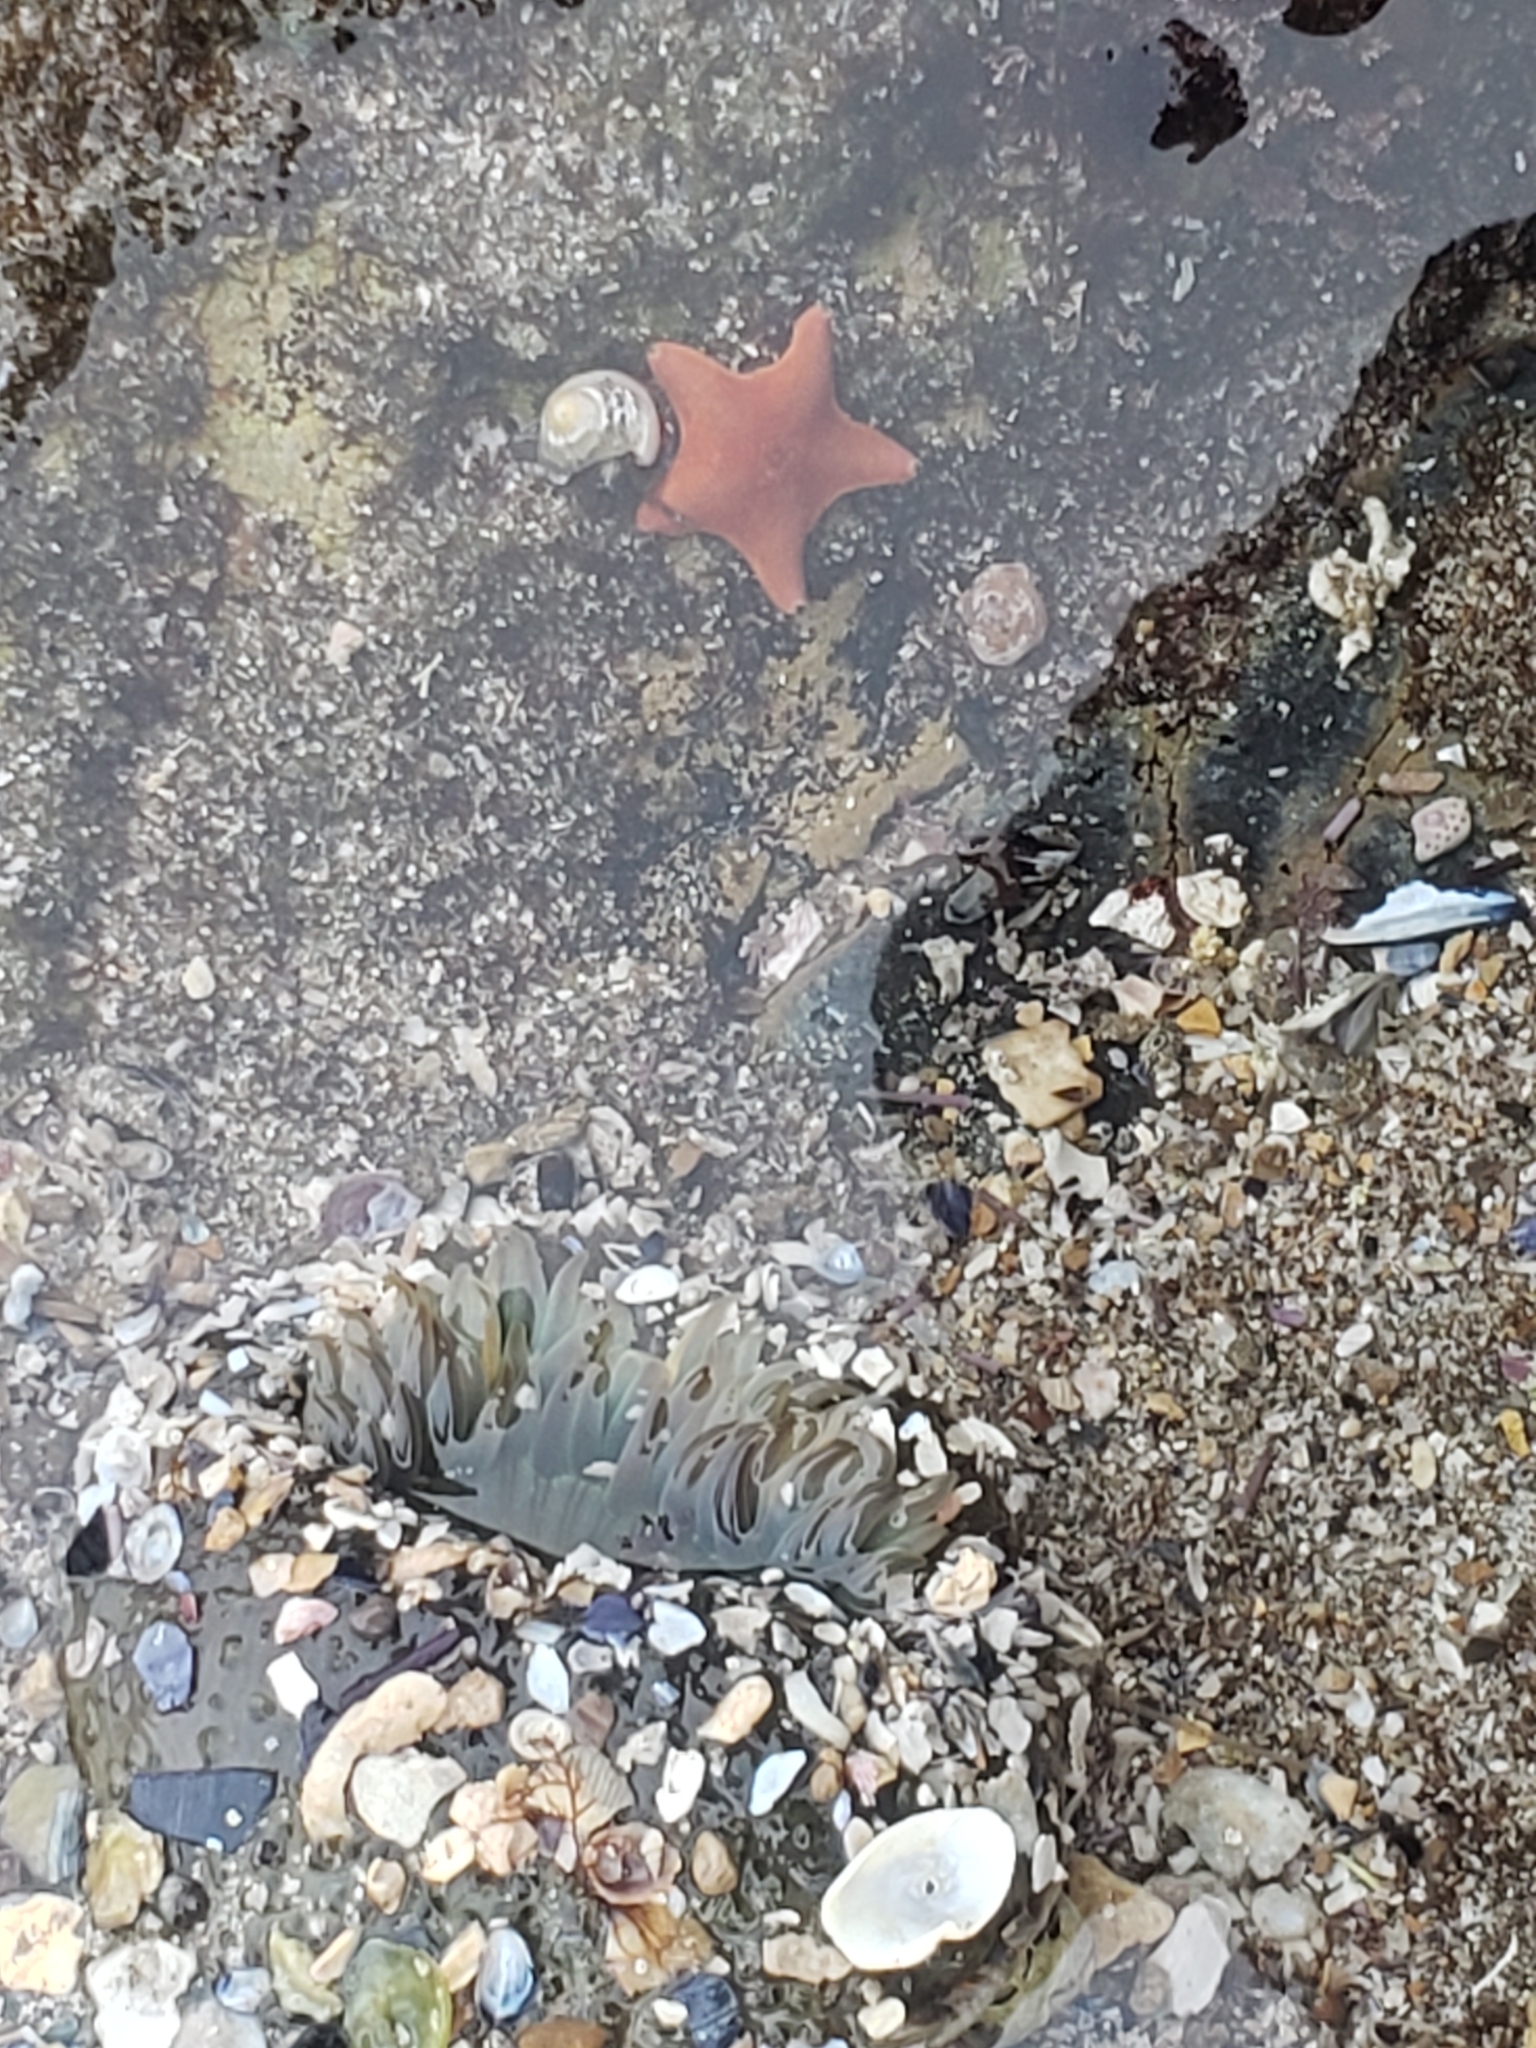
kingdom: Animalia
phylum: Echinodermata
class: Asteroidea
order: Valvatida
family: Asterinidae
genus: Patiria
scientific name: Patiria miniata
